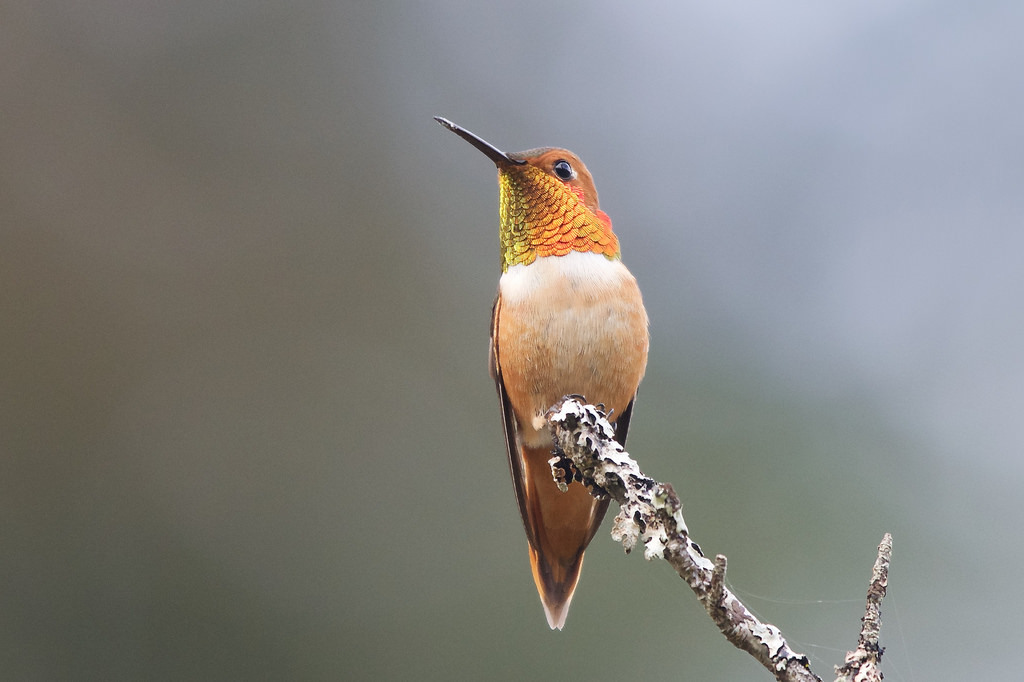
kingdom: Animalia
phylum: Chordata
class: Aves
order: Apodiformes
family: Trochilidae
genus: Selasphorus
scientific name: Selasphorus rufus
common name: Rufous hummingbird
